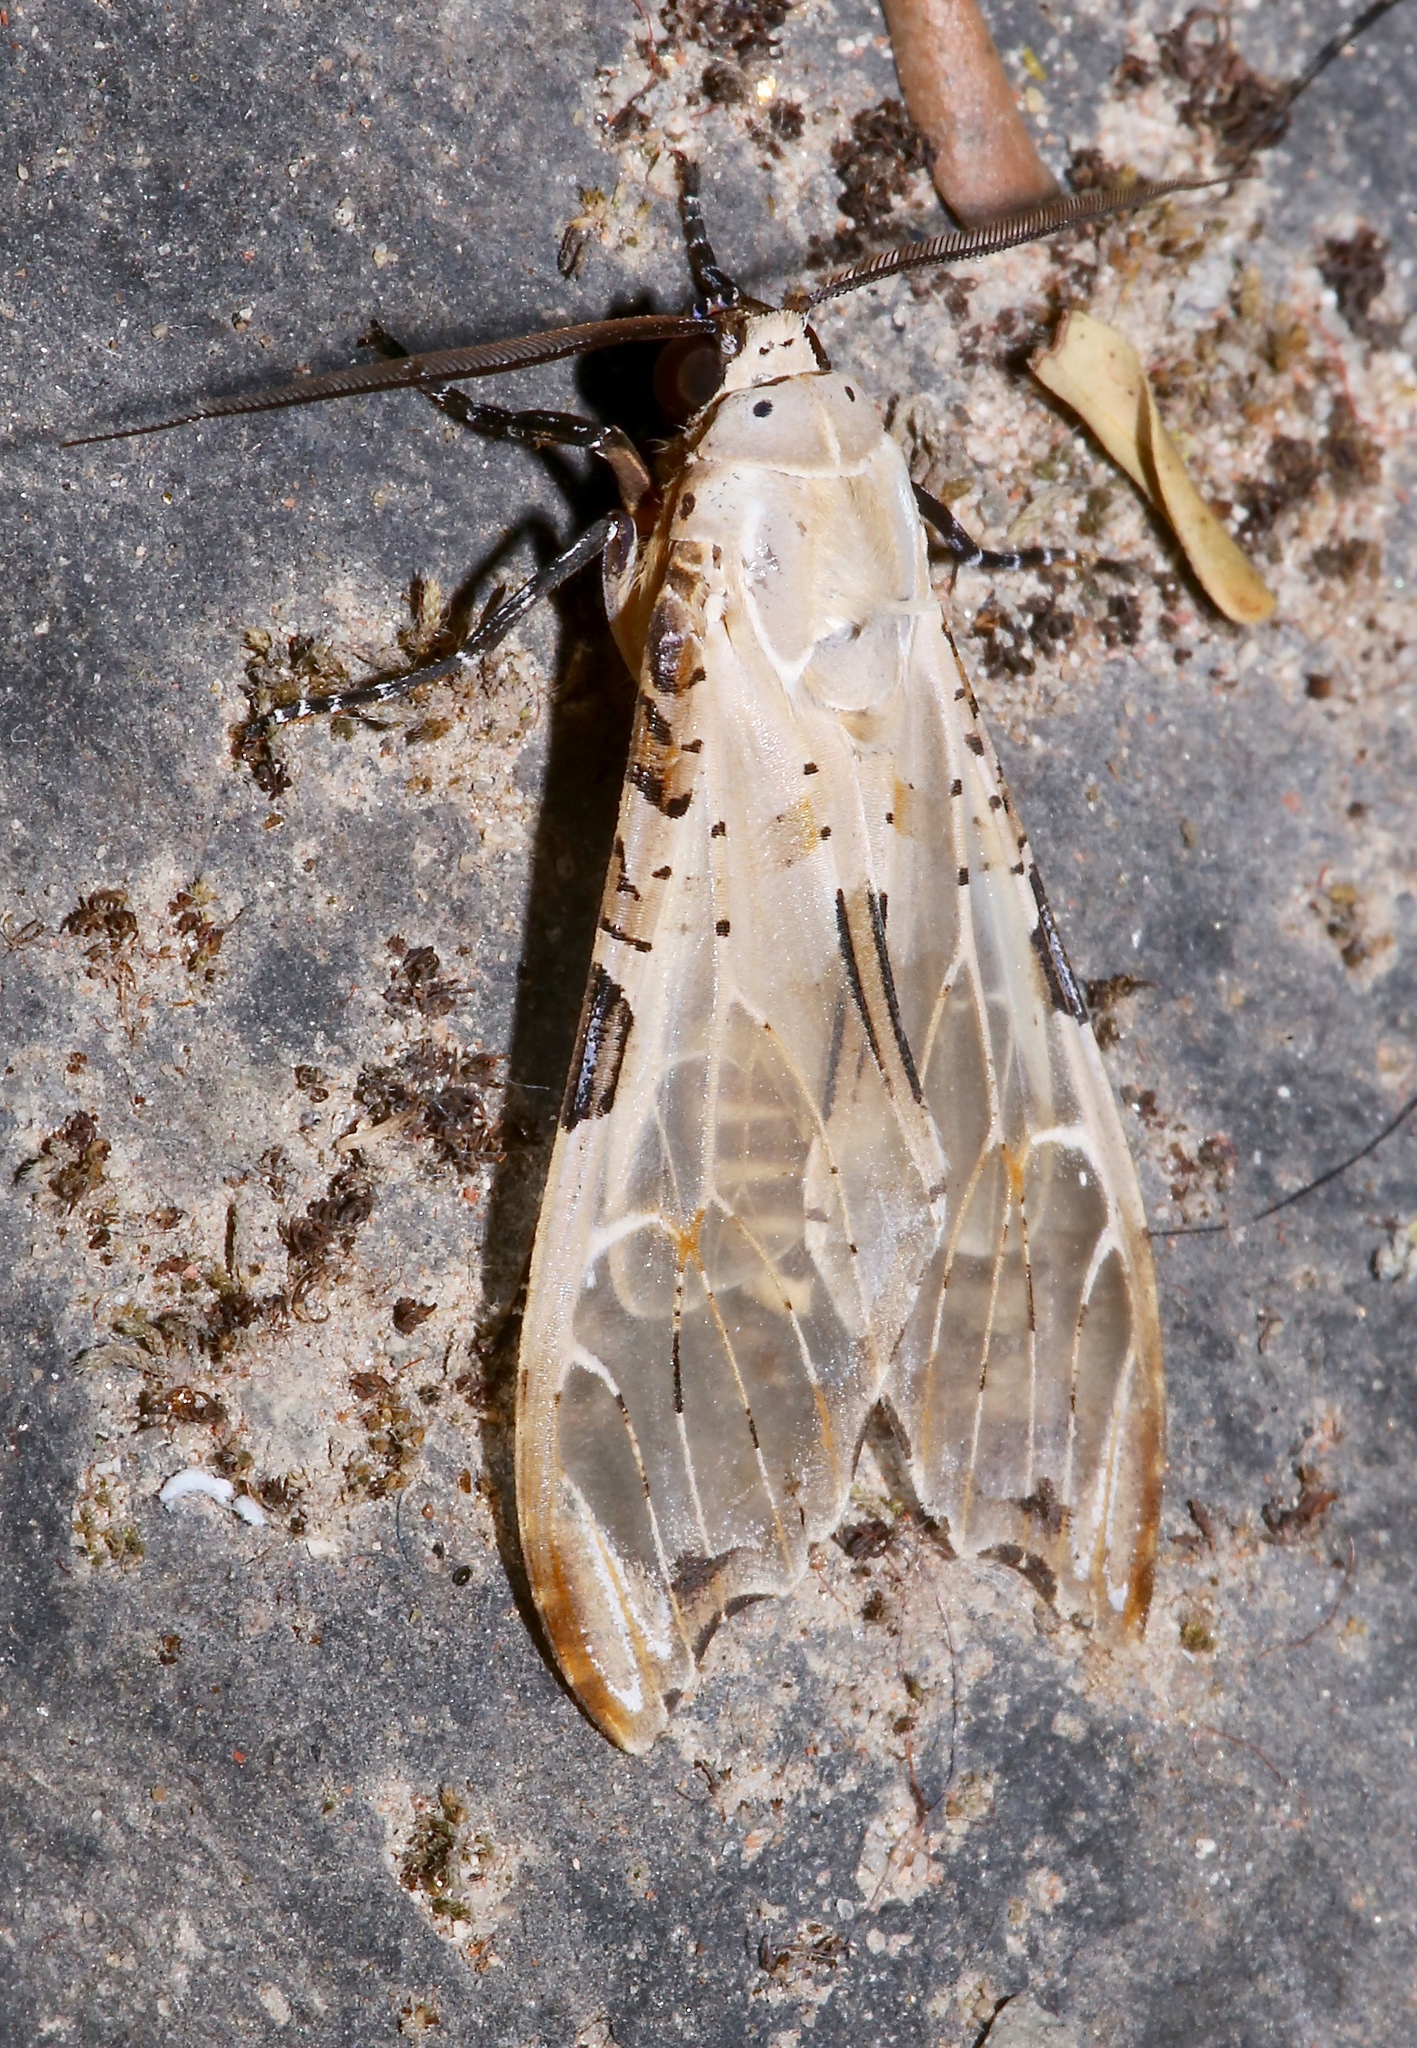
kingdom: Animalia
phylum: Arthropoda
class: Insecta
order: Lepidoptera
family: Erebidae
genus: Psychophasma
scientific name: Psychophasma erosa
